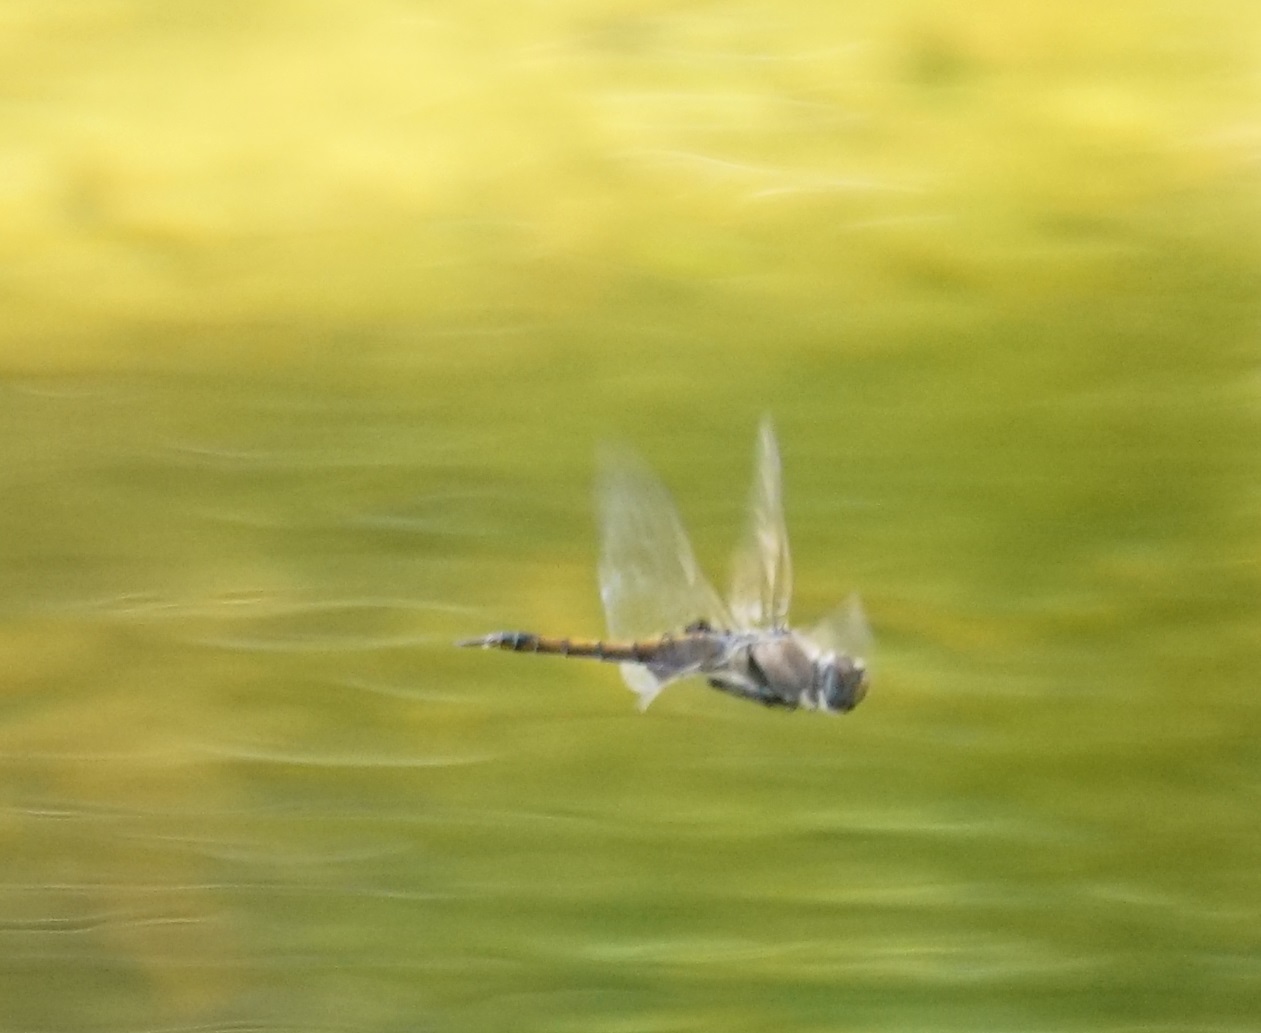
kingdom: Animalia
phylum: Arthropoda
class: Insecta
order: Odonata
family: Libellulidae
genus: Tramea
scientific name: Tramea loewii
